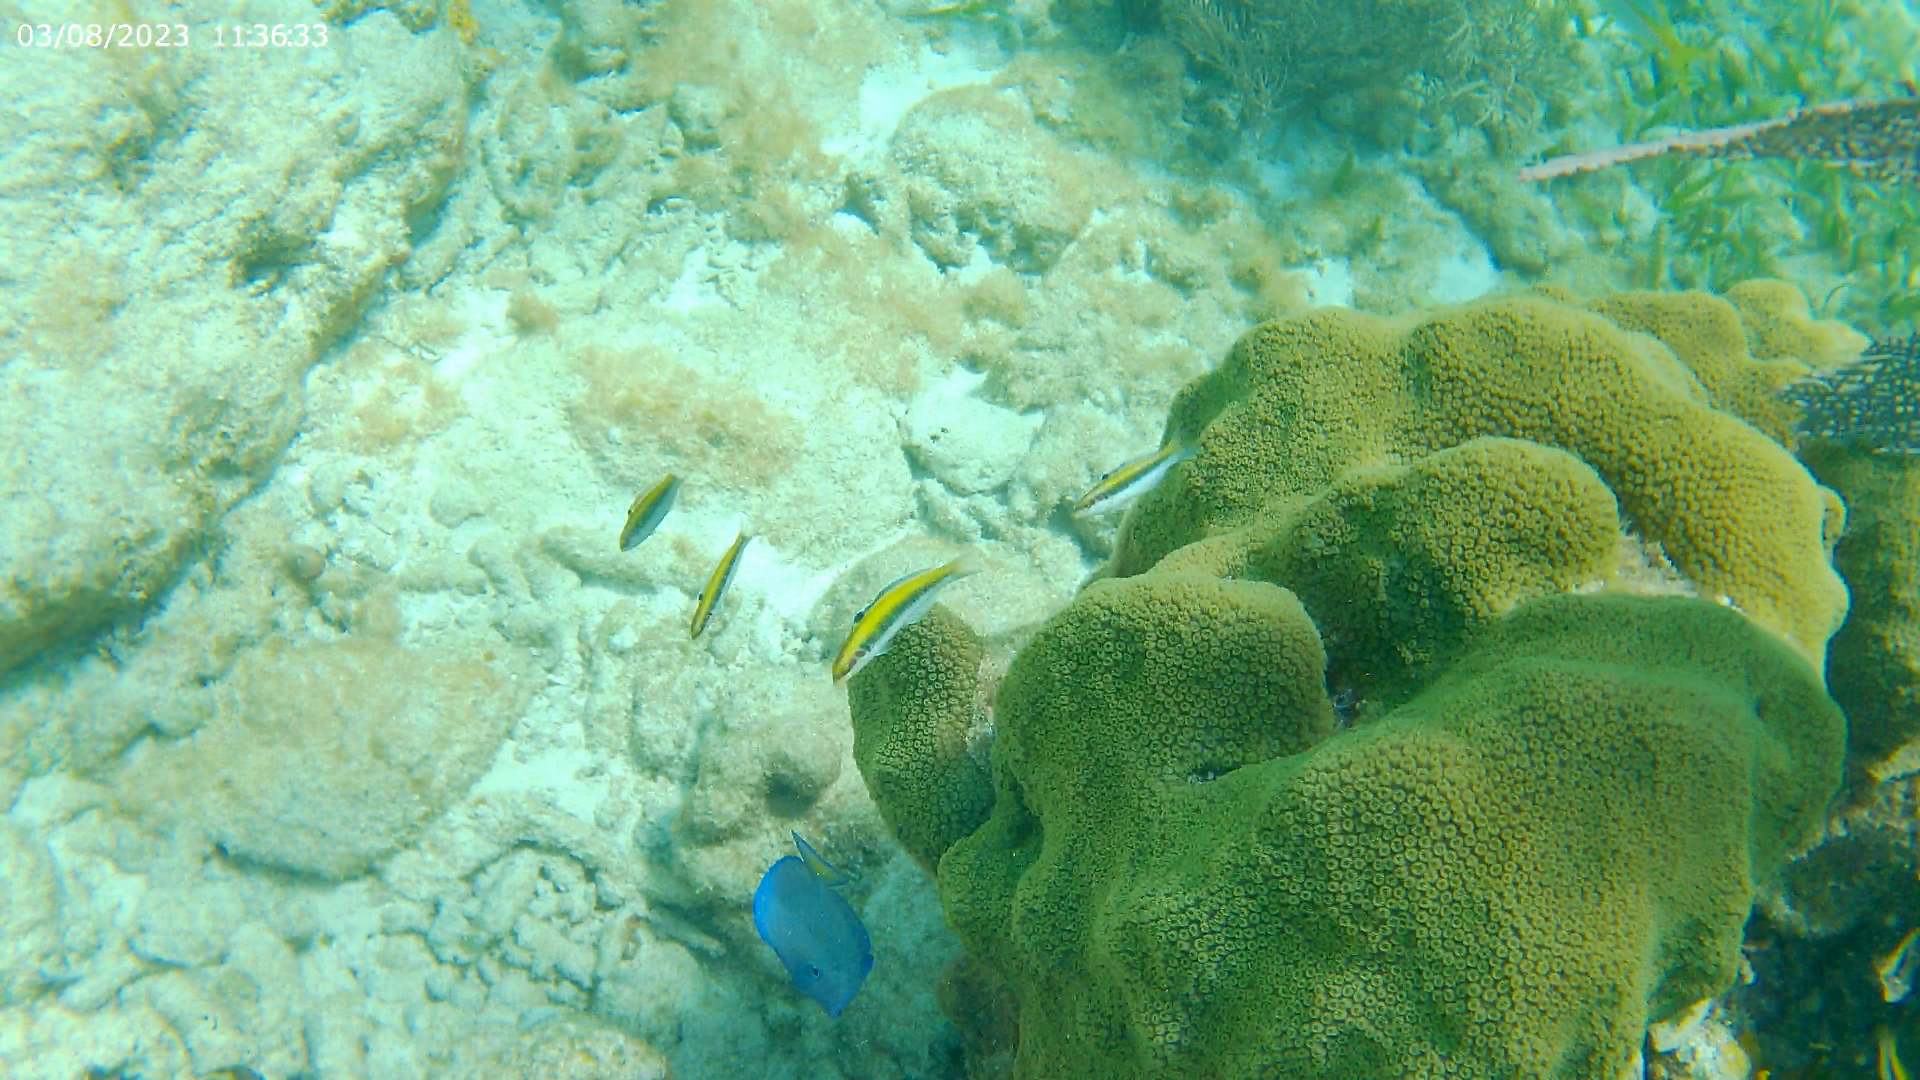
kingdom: Animalia
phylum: Chordata
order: Perciformes
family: Labridae
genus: Thalassoma
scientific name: Thalassoma bifasciatum
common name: Bluehead wrasse
